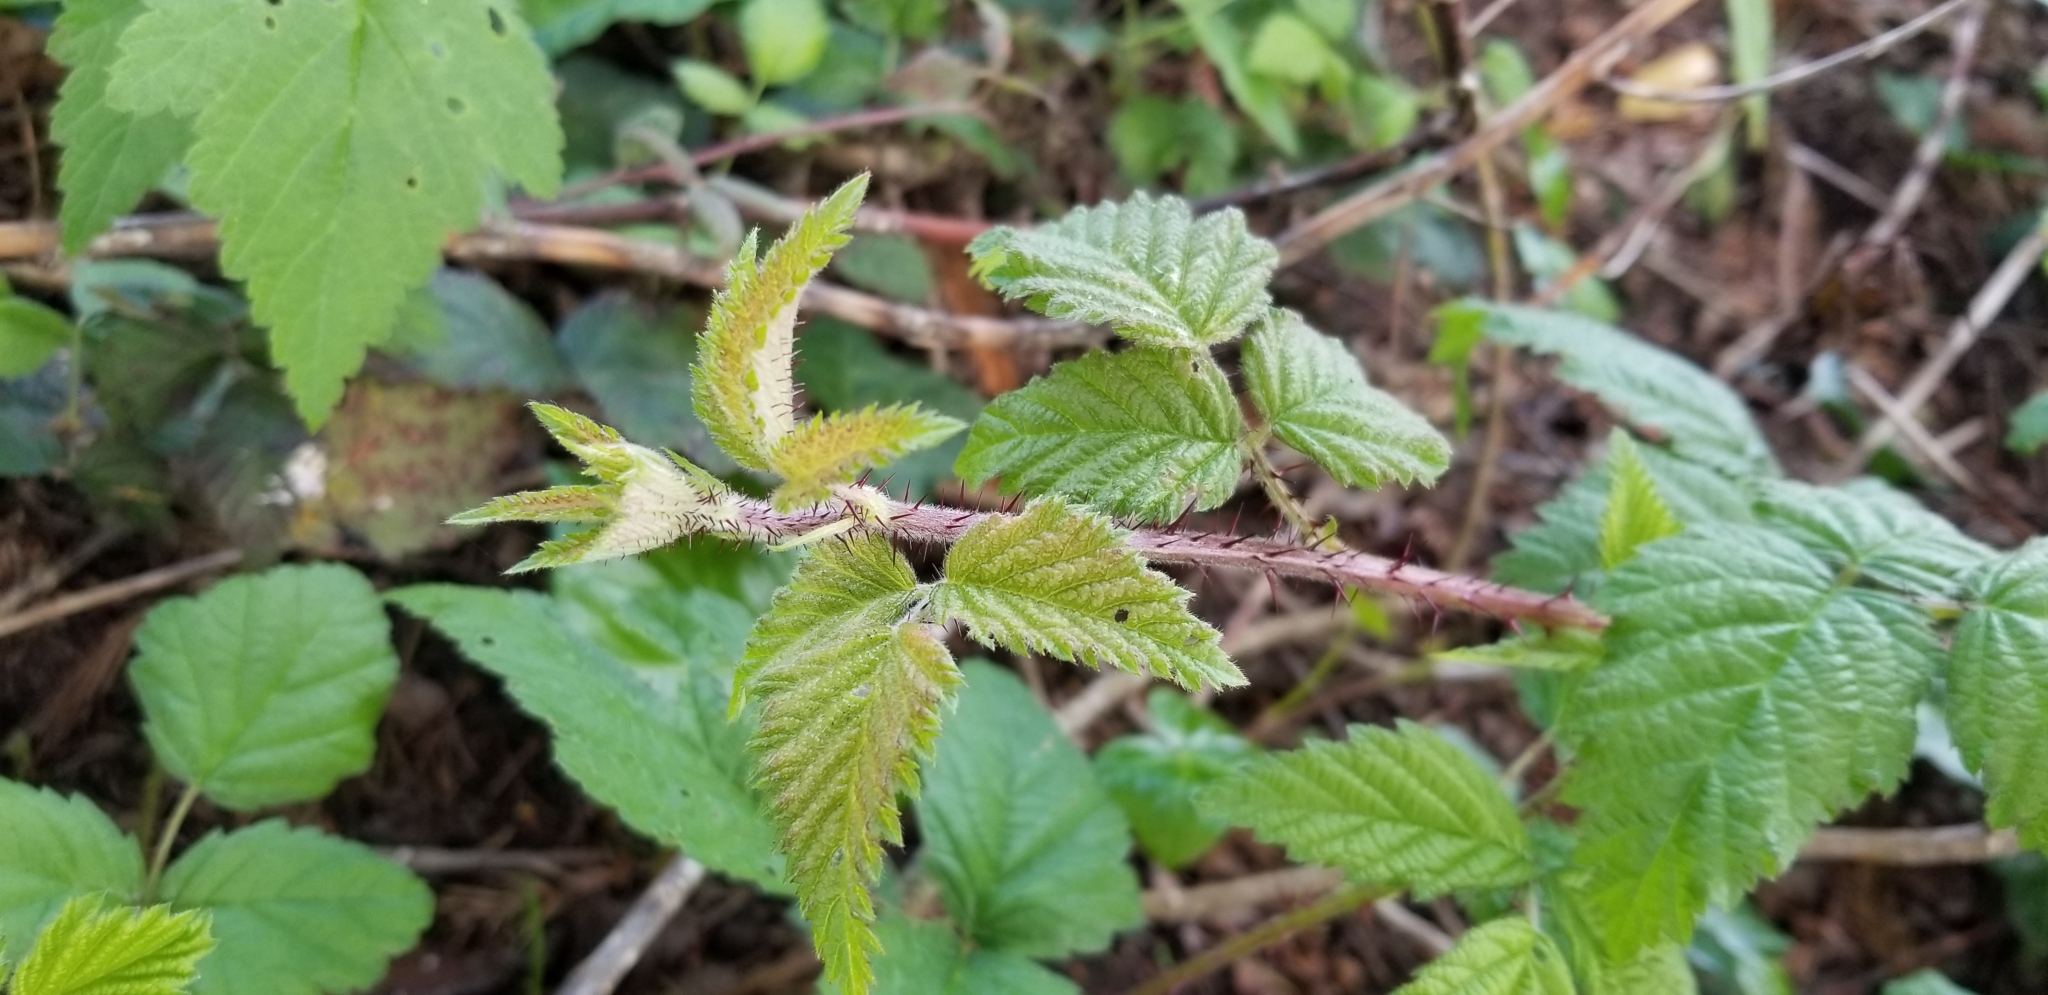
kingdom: Plantae
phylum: Tracheophyta
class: Magnoliopsida
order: Rosales
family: Rosaceae
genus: Rubus
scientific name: Rubus ursinus
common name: Pacific blackberry
